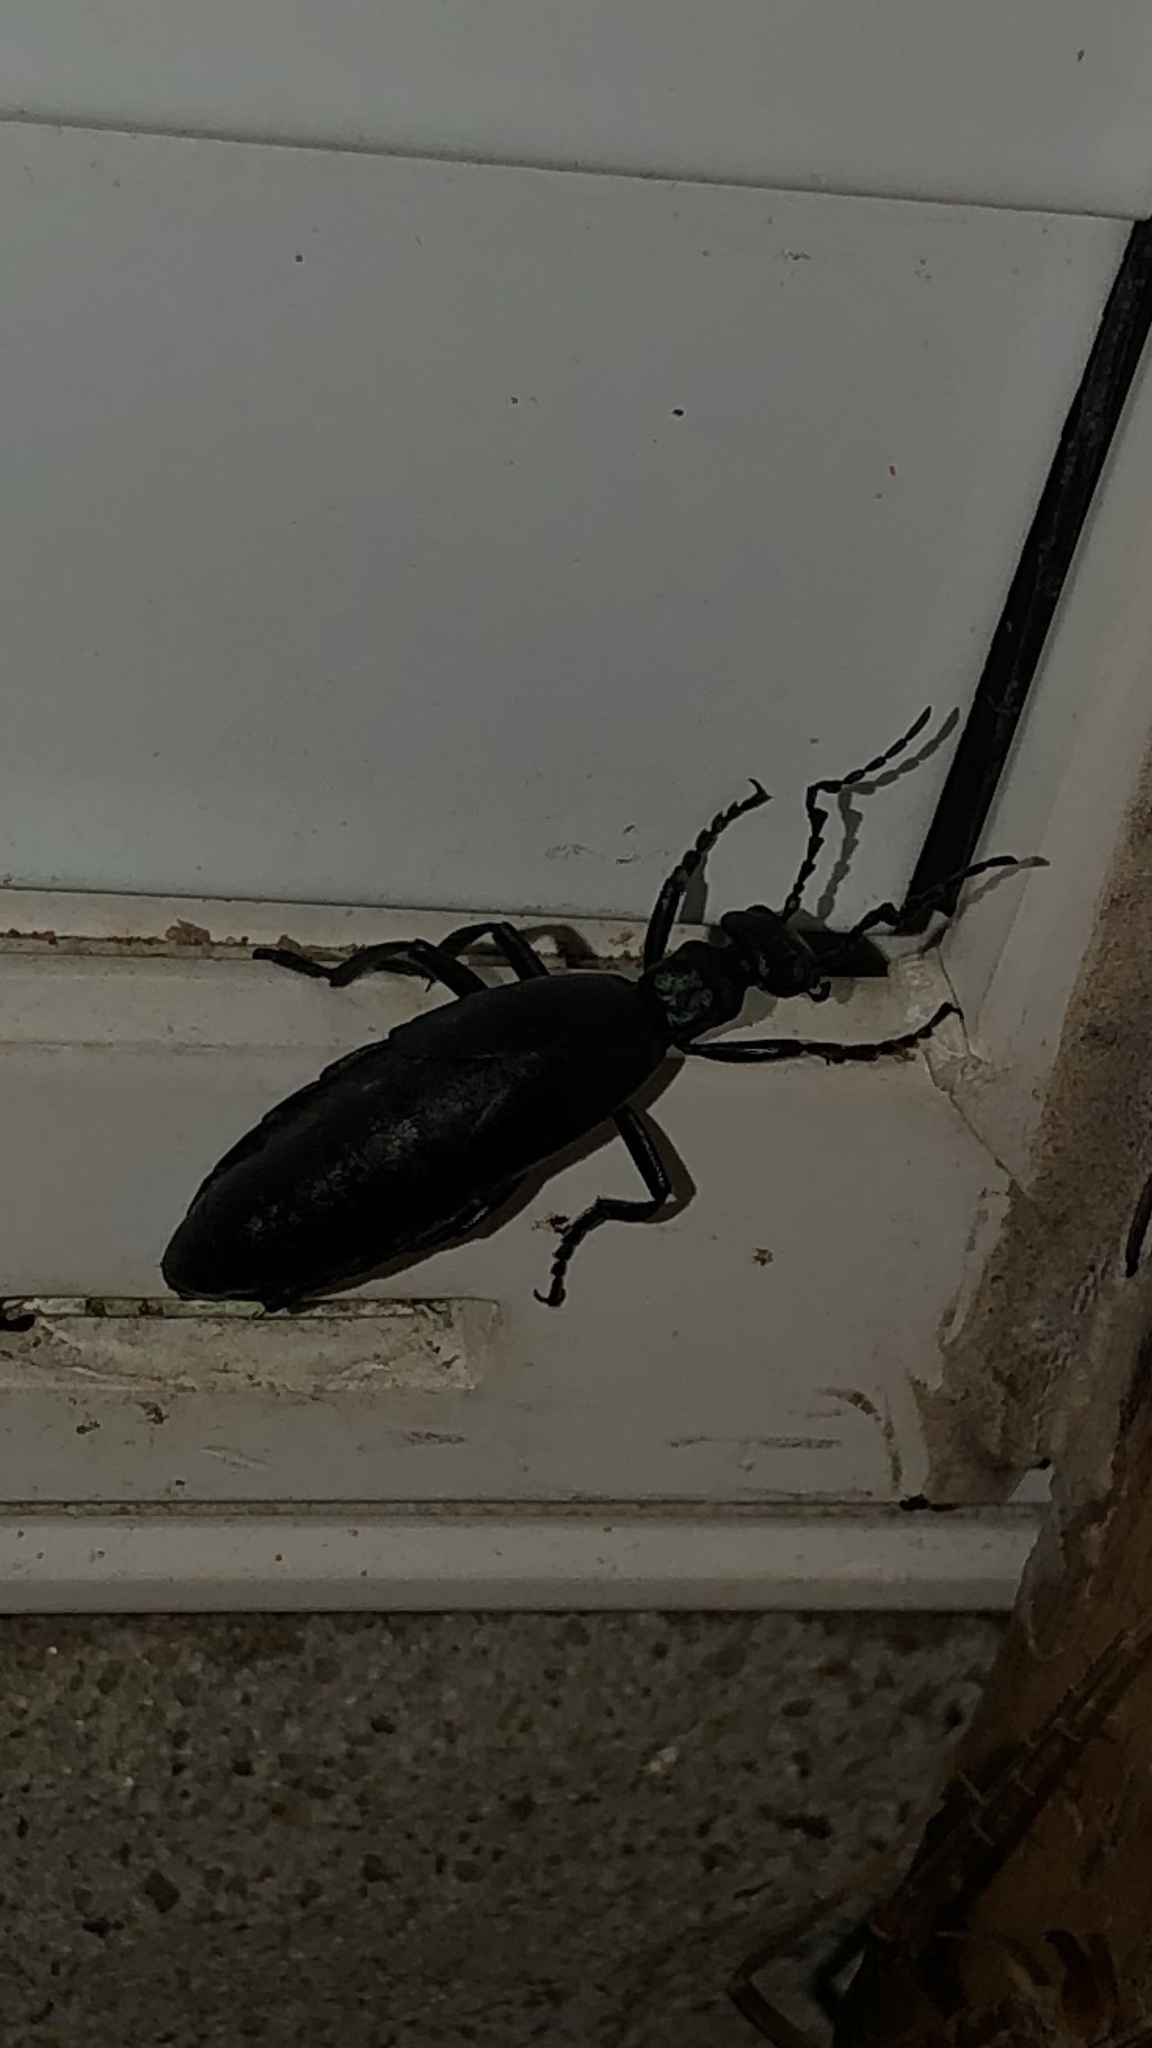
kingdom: Animalia
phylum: Arthropoda
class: Insecta
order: Coleoptera
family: Meloidae
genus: Meloe
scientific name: Meloe americanus
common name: Buttercup oil beetle
